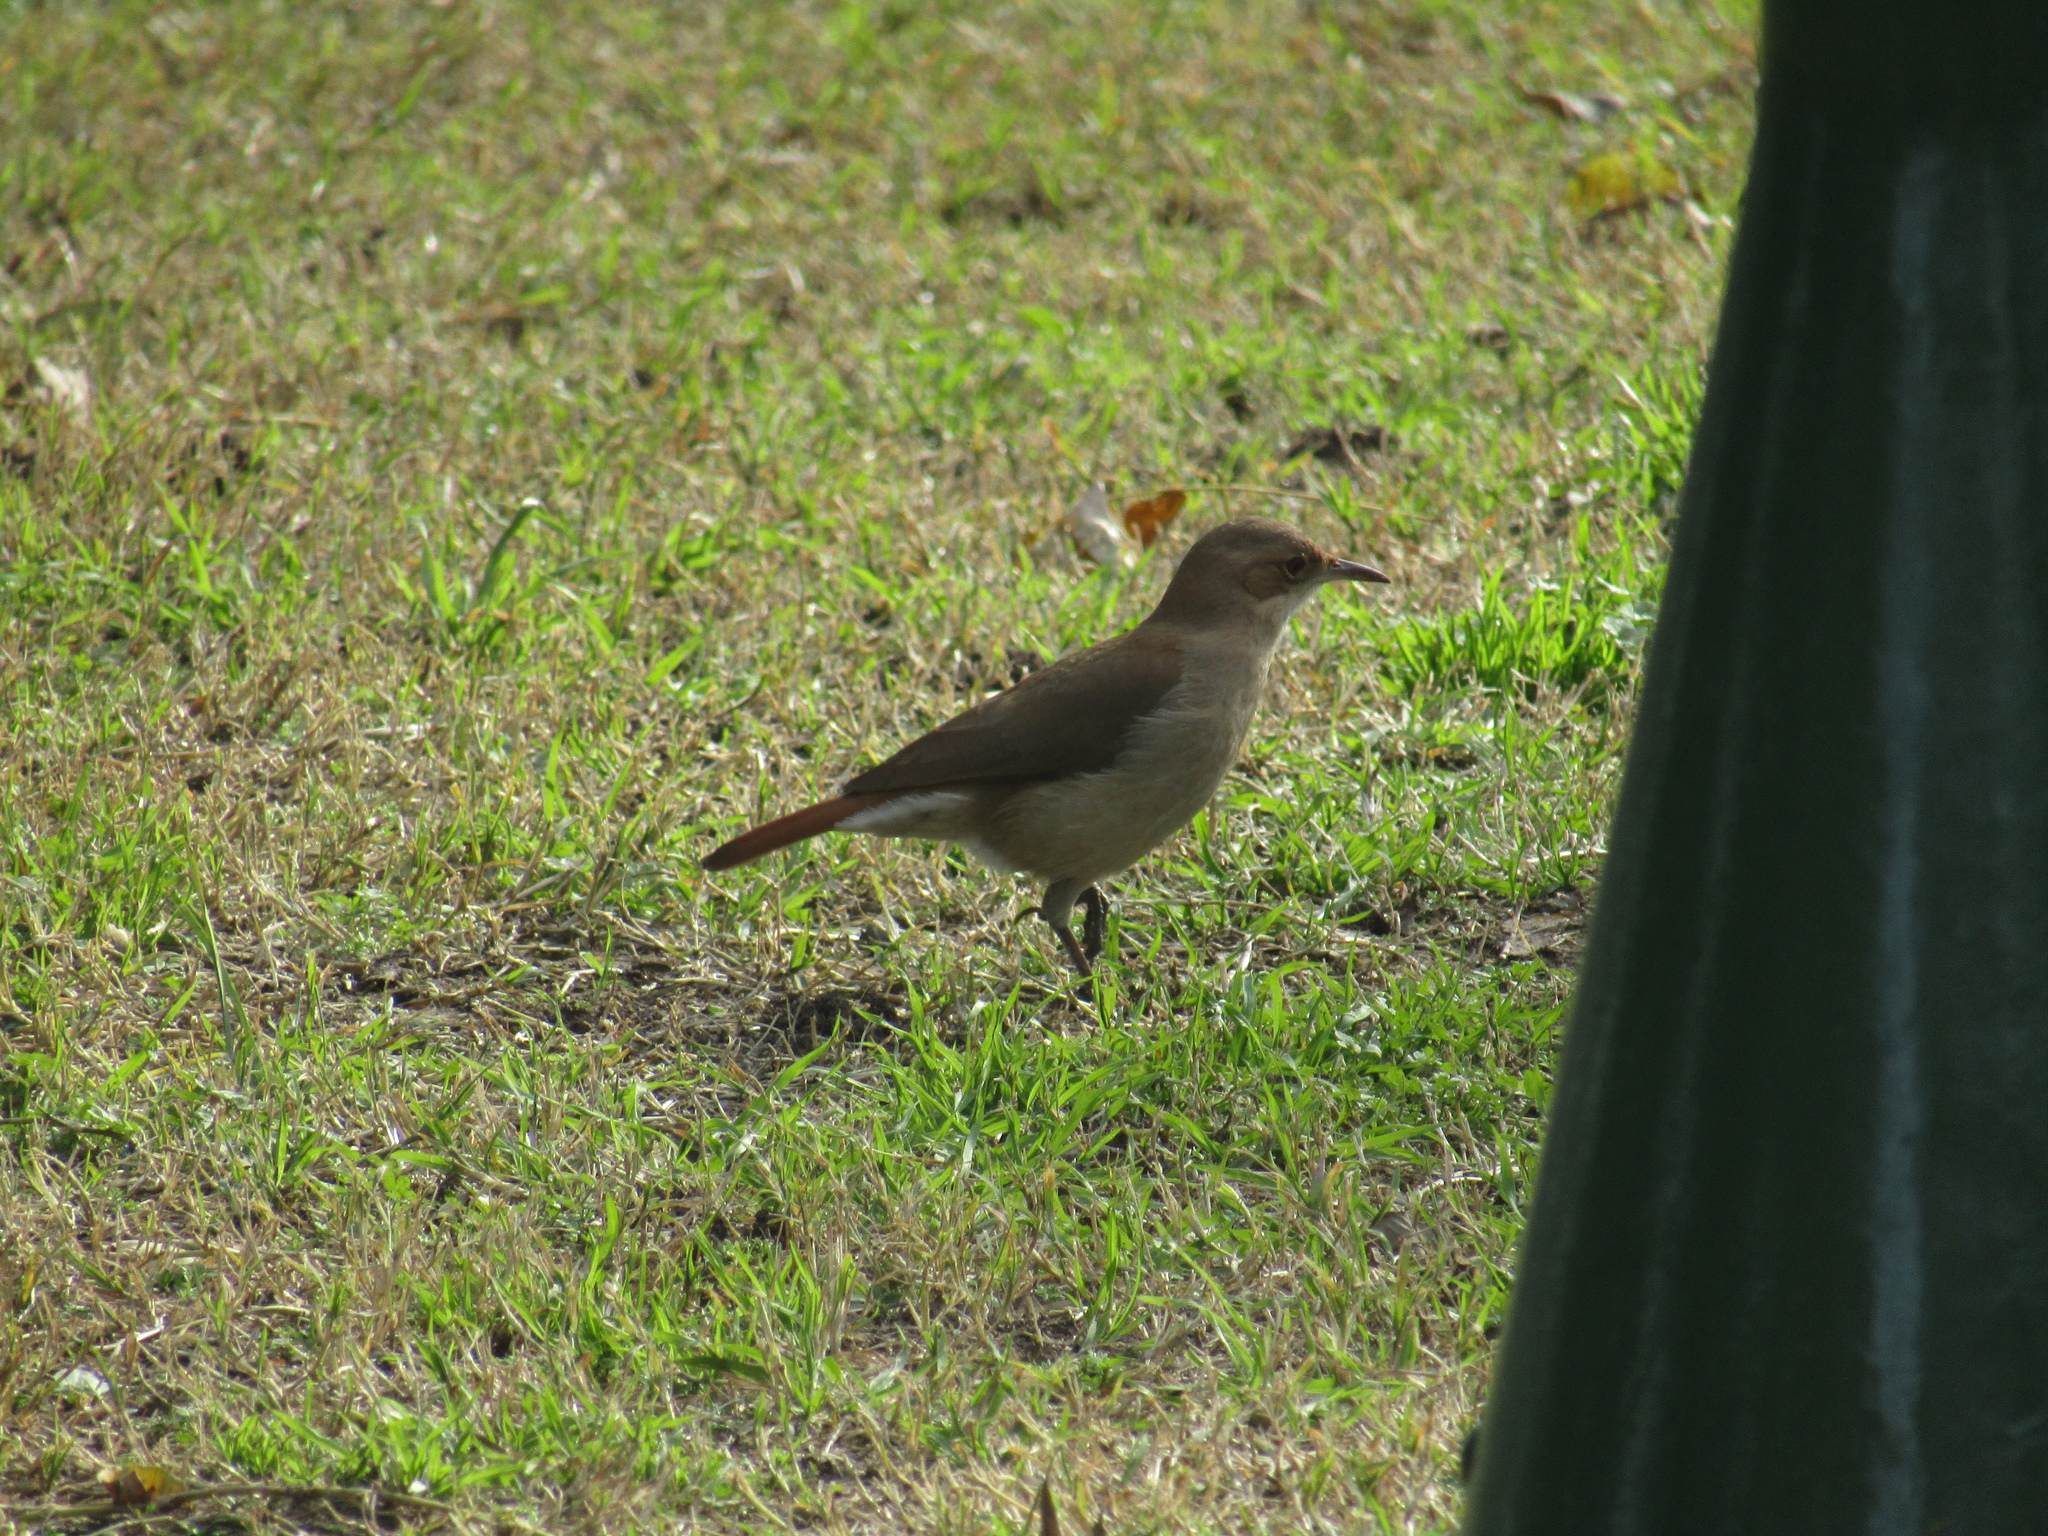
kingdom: Animalia
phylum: Chordata
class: Aves
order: Passeriformes
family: Furnariidae
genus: Furnarius
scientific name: Furnarius rufus
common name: Rufous hornero
